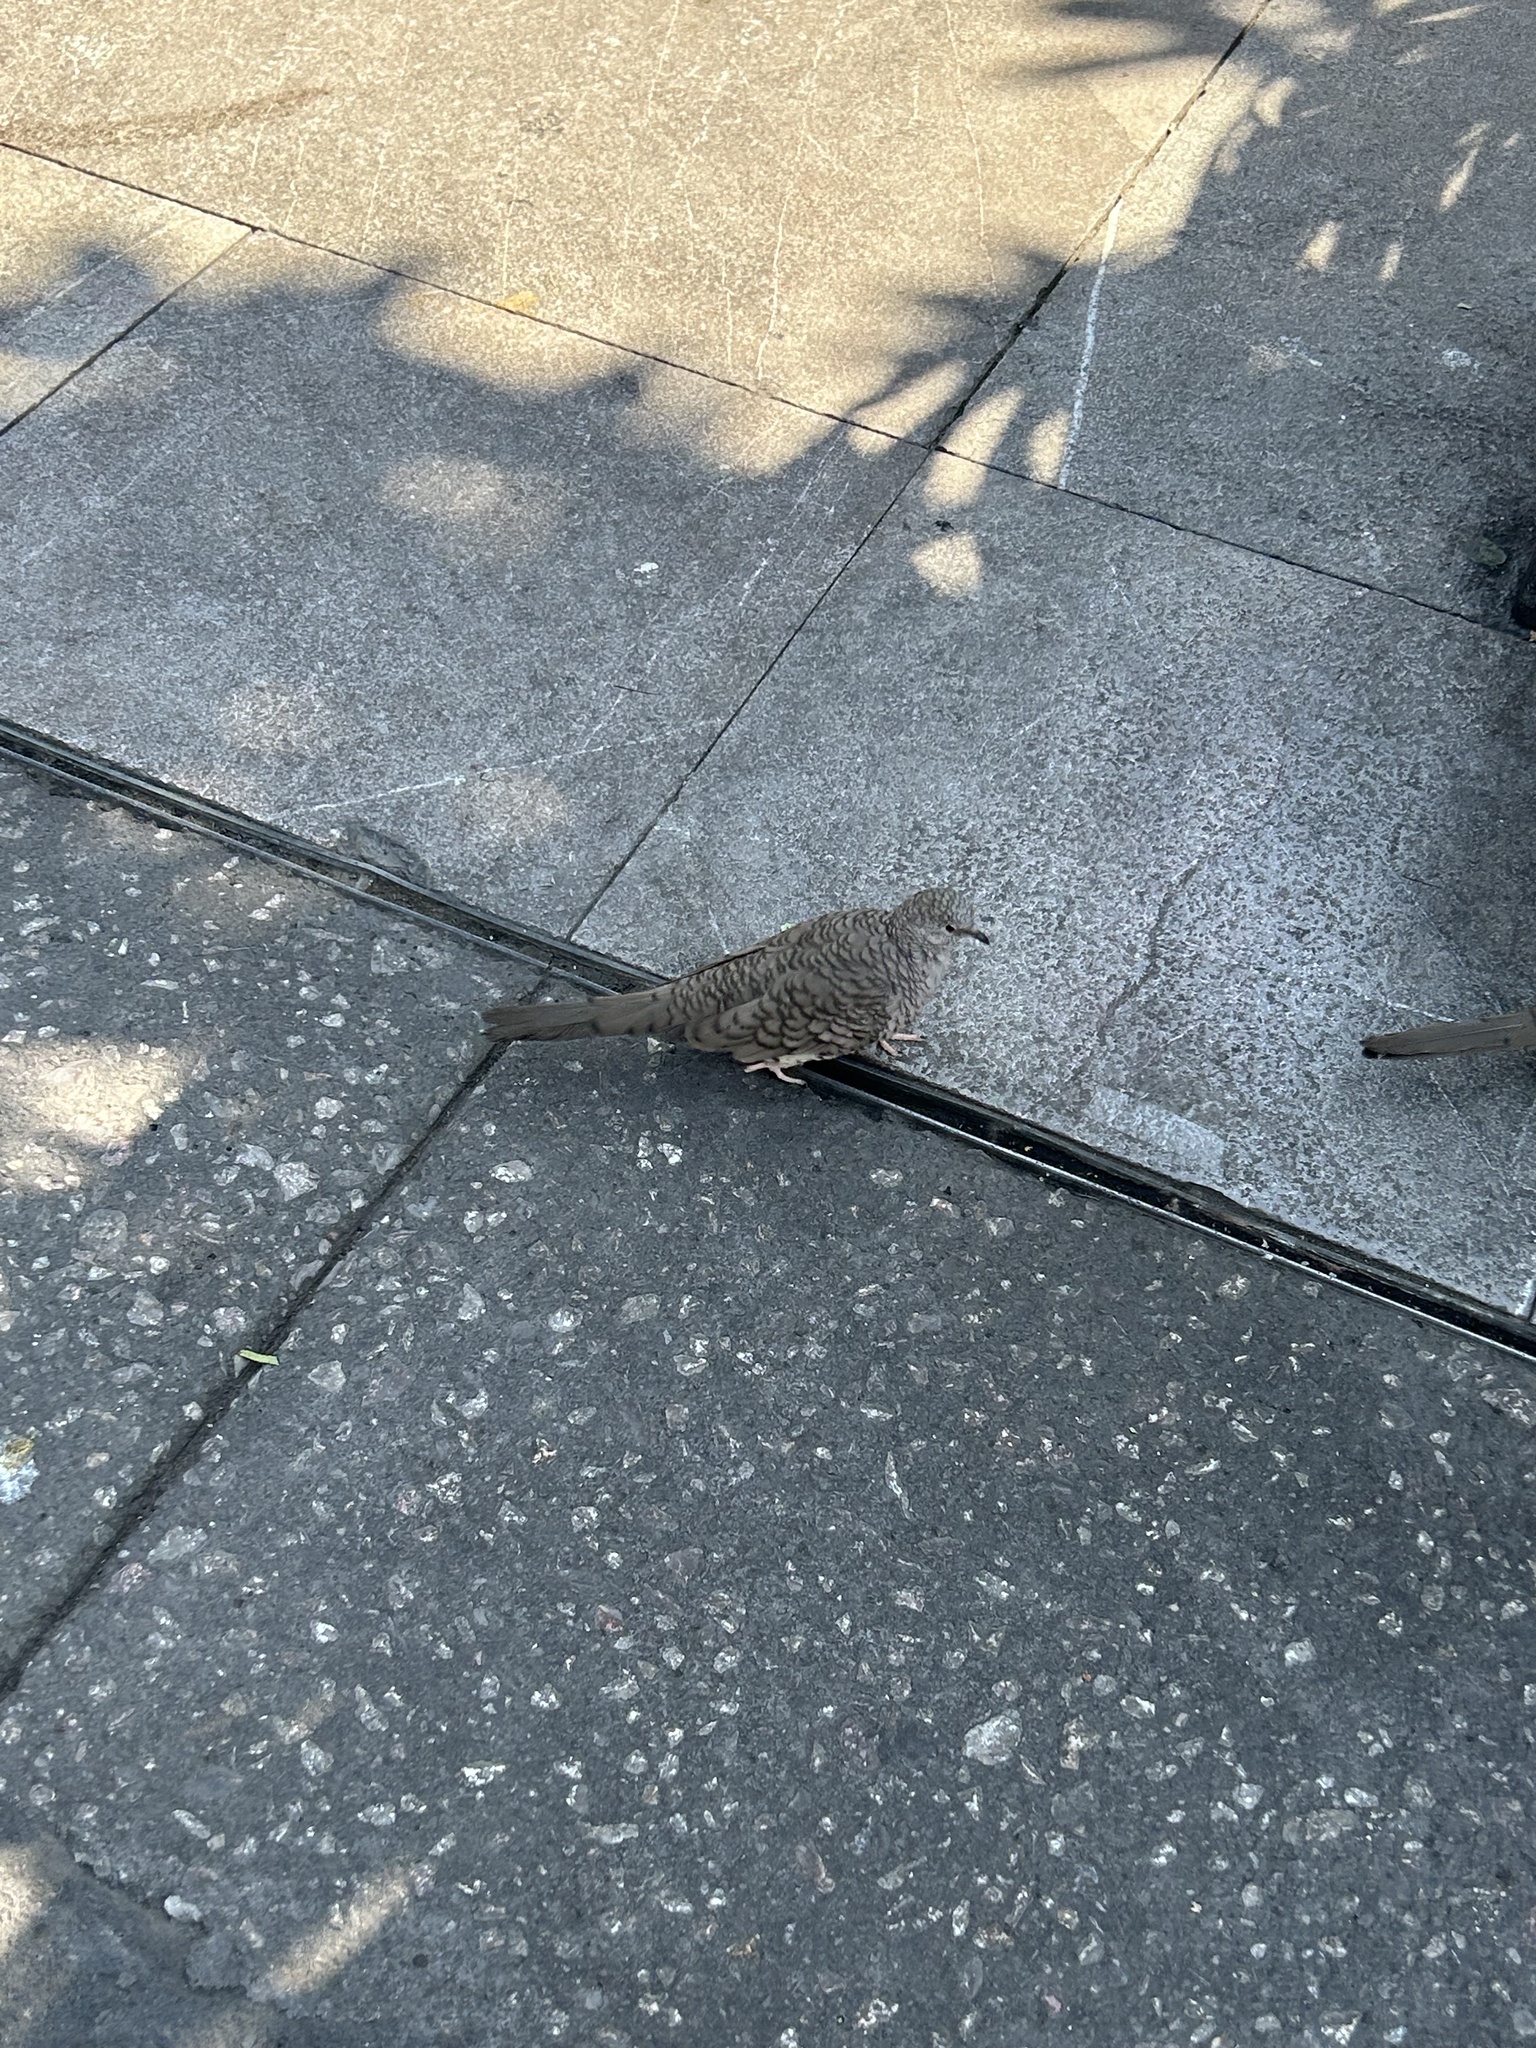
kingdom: Animalia
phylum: Chordata
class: Aves
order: Columbiformes
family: Columbidae
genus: Columbina
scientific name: Columbina inca
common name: Inca dove
